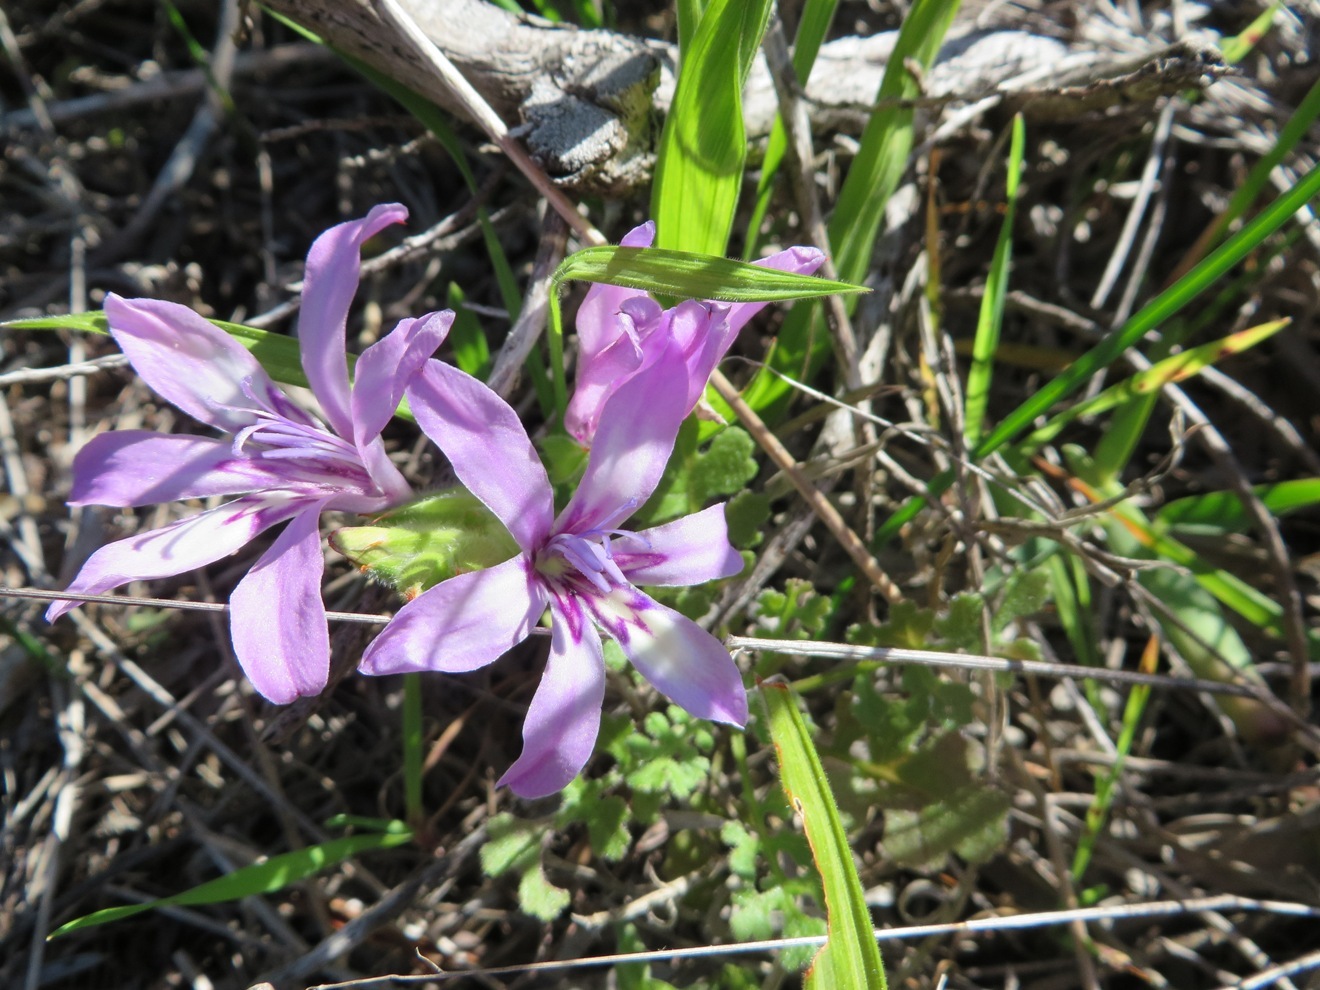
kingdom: Plantae
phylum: Tracheophyta
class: Liliopsida
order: Asparagales
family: Iridaceae
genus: Babiana
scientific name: Babiana ambigua
